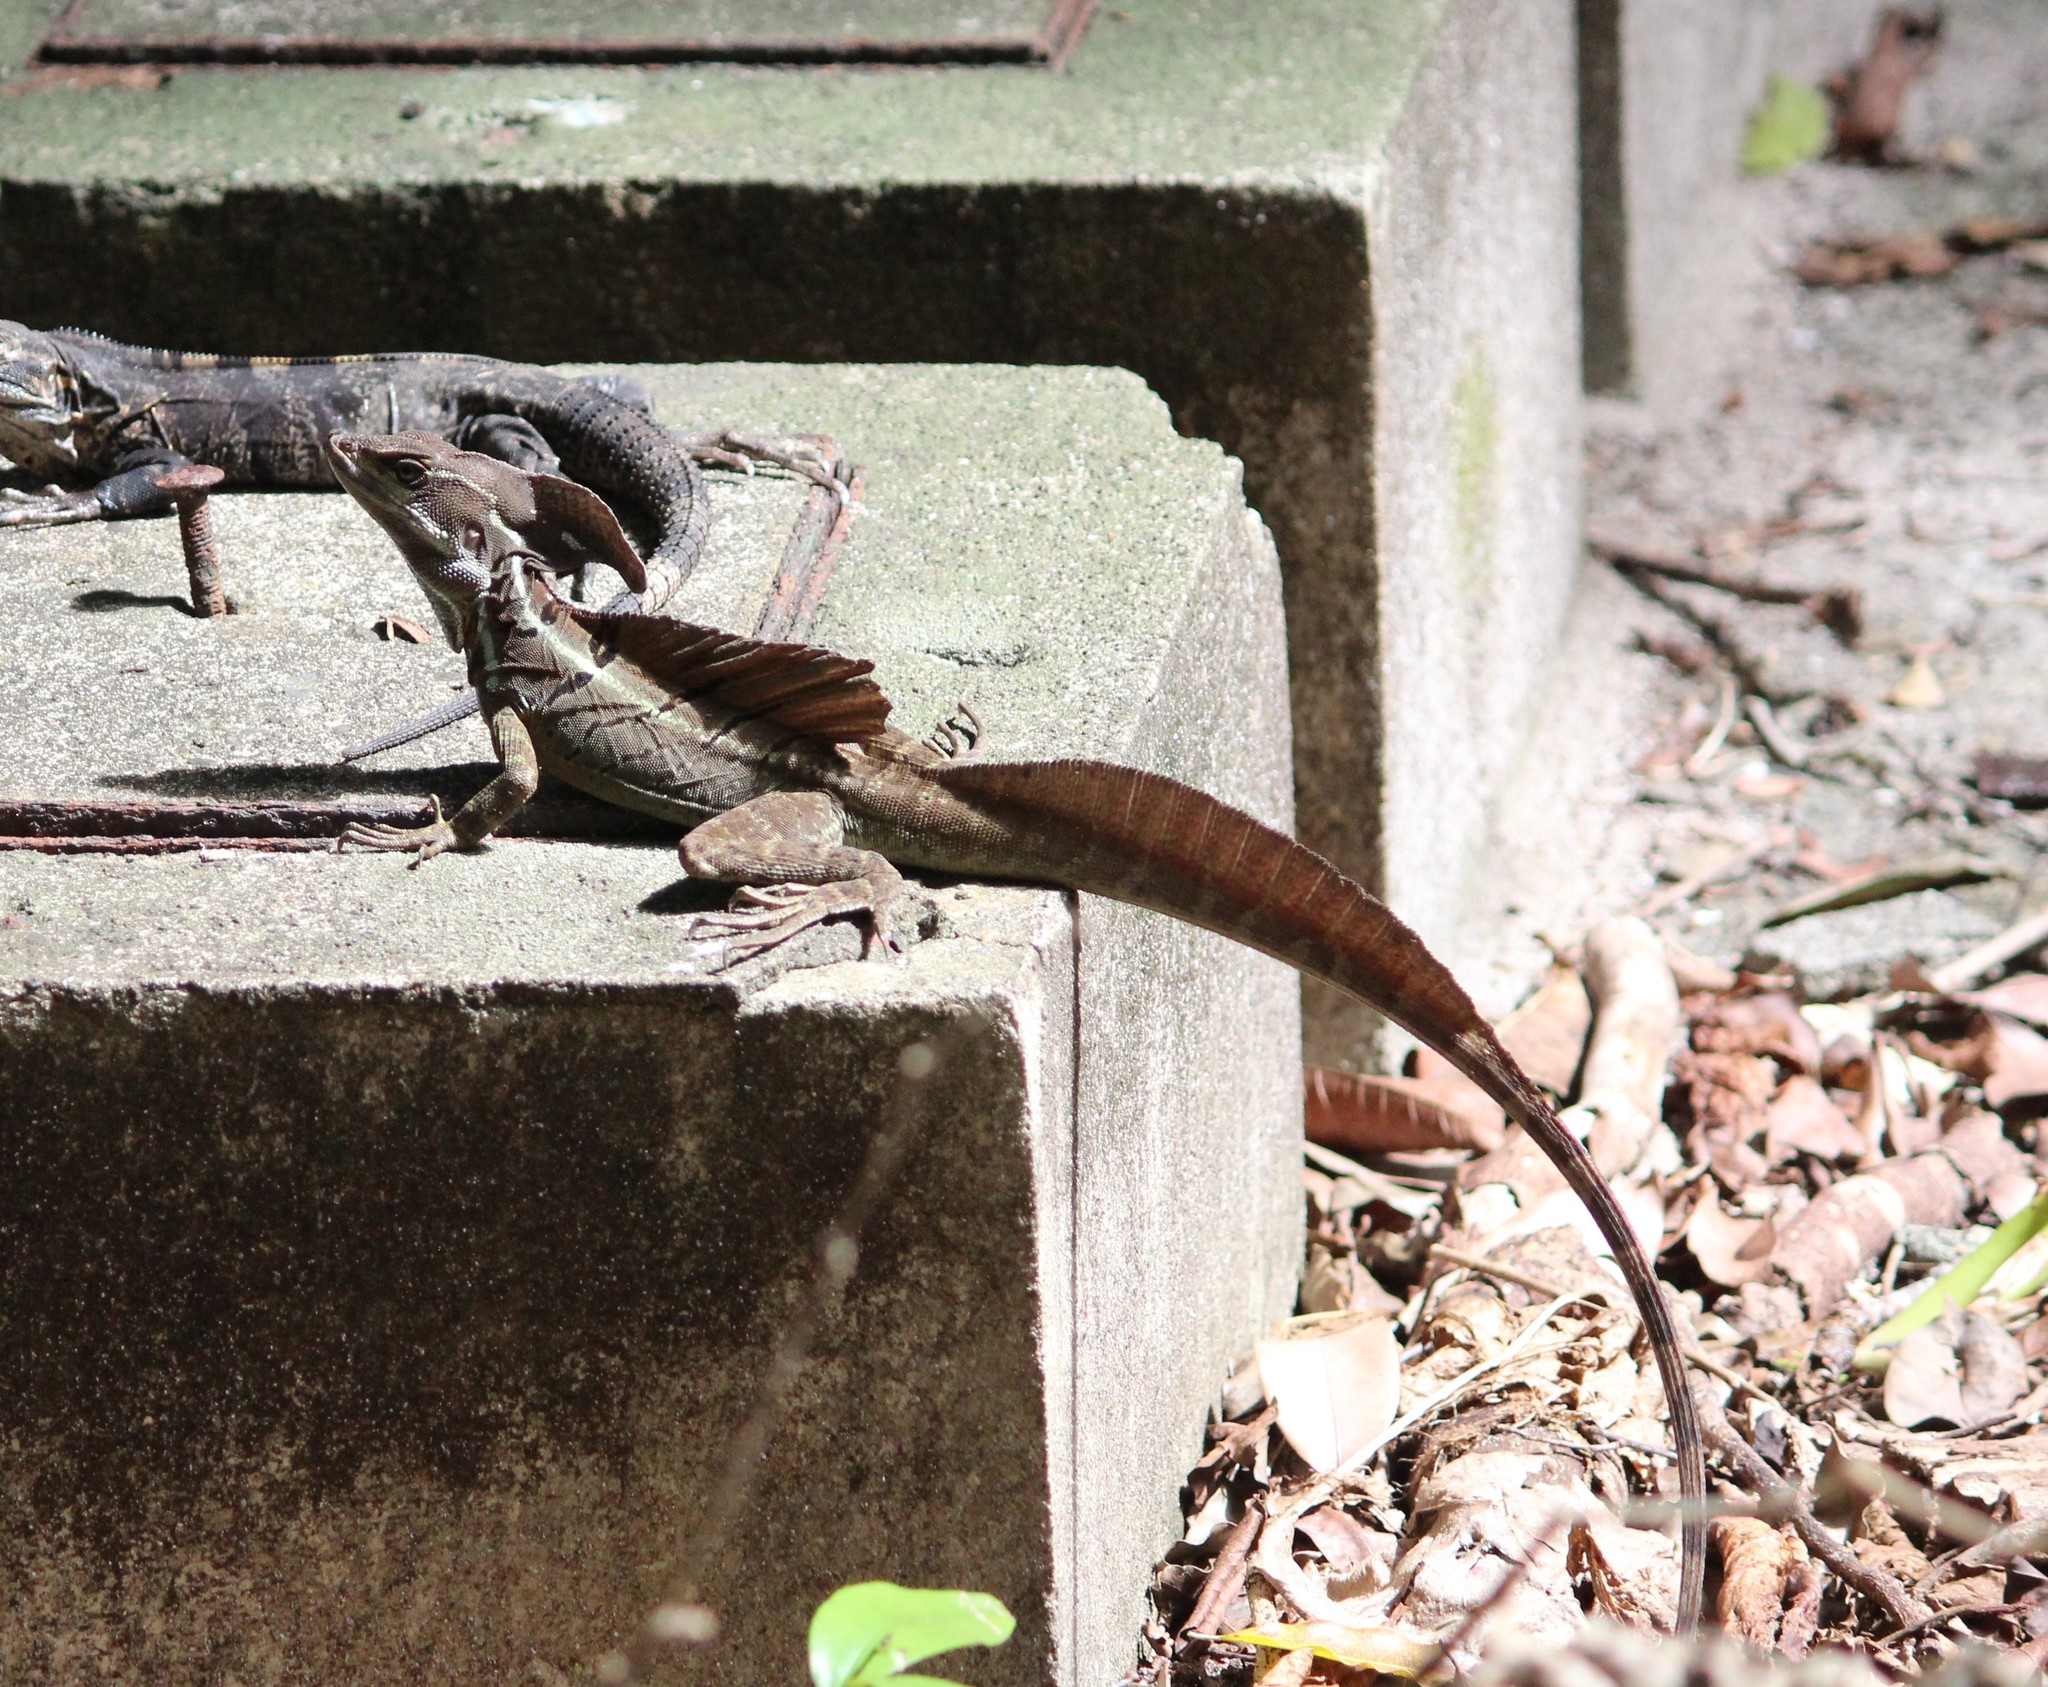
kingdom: Animalia
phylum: Chordata
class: Squamata
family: Corytophanidae
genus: Basiliscus
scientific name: Basiliscus basiliscus
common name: Common basilisk
